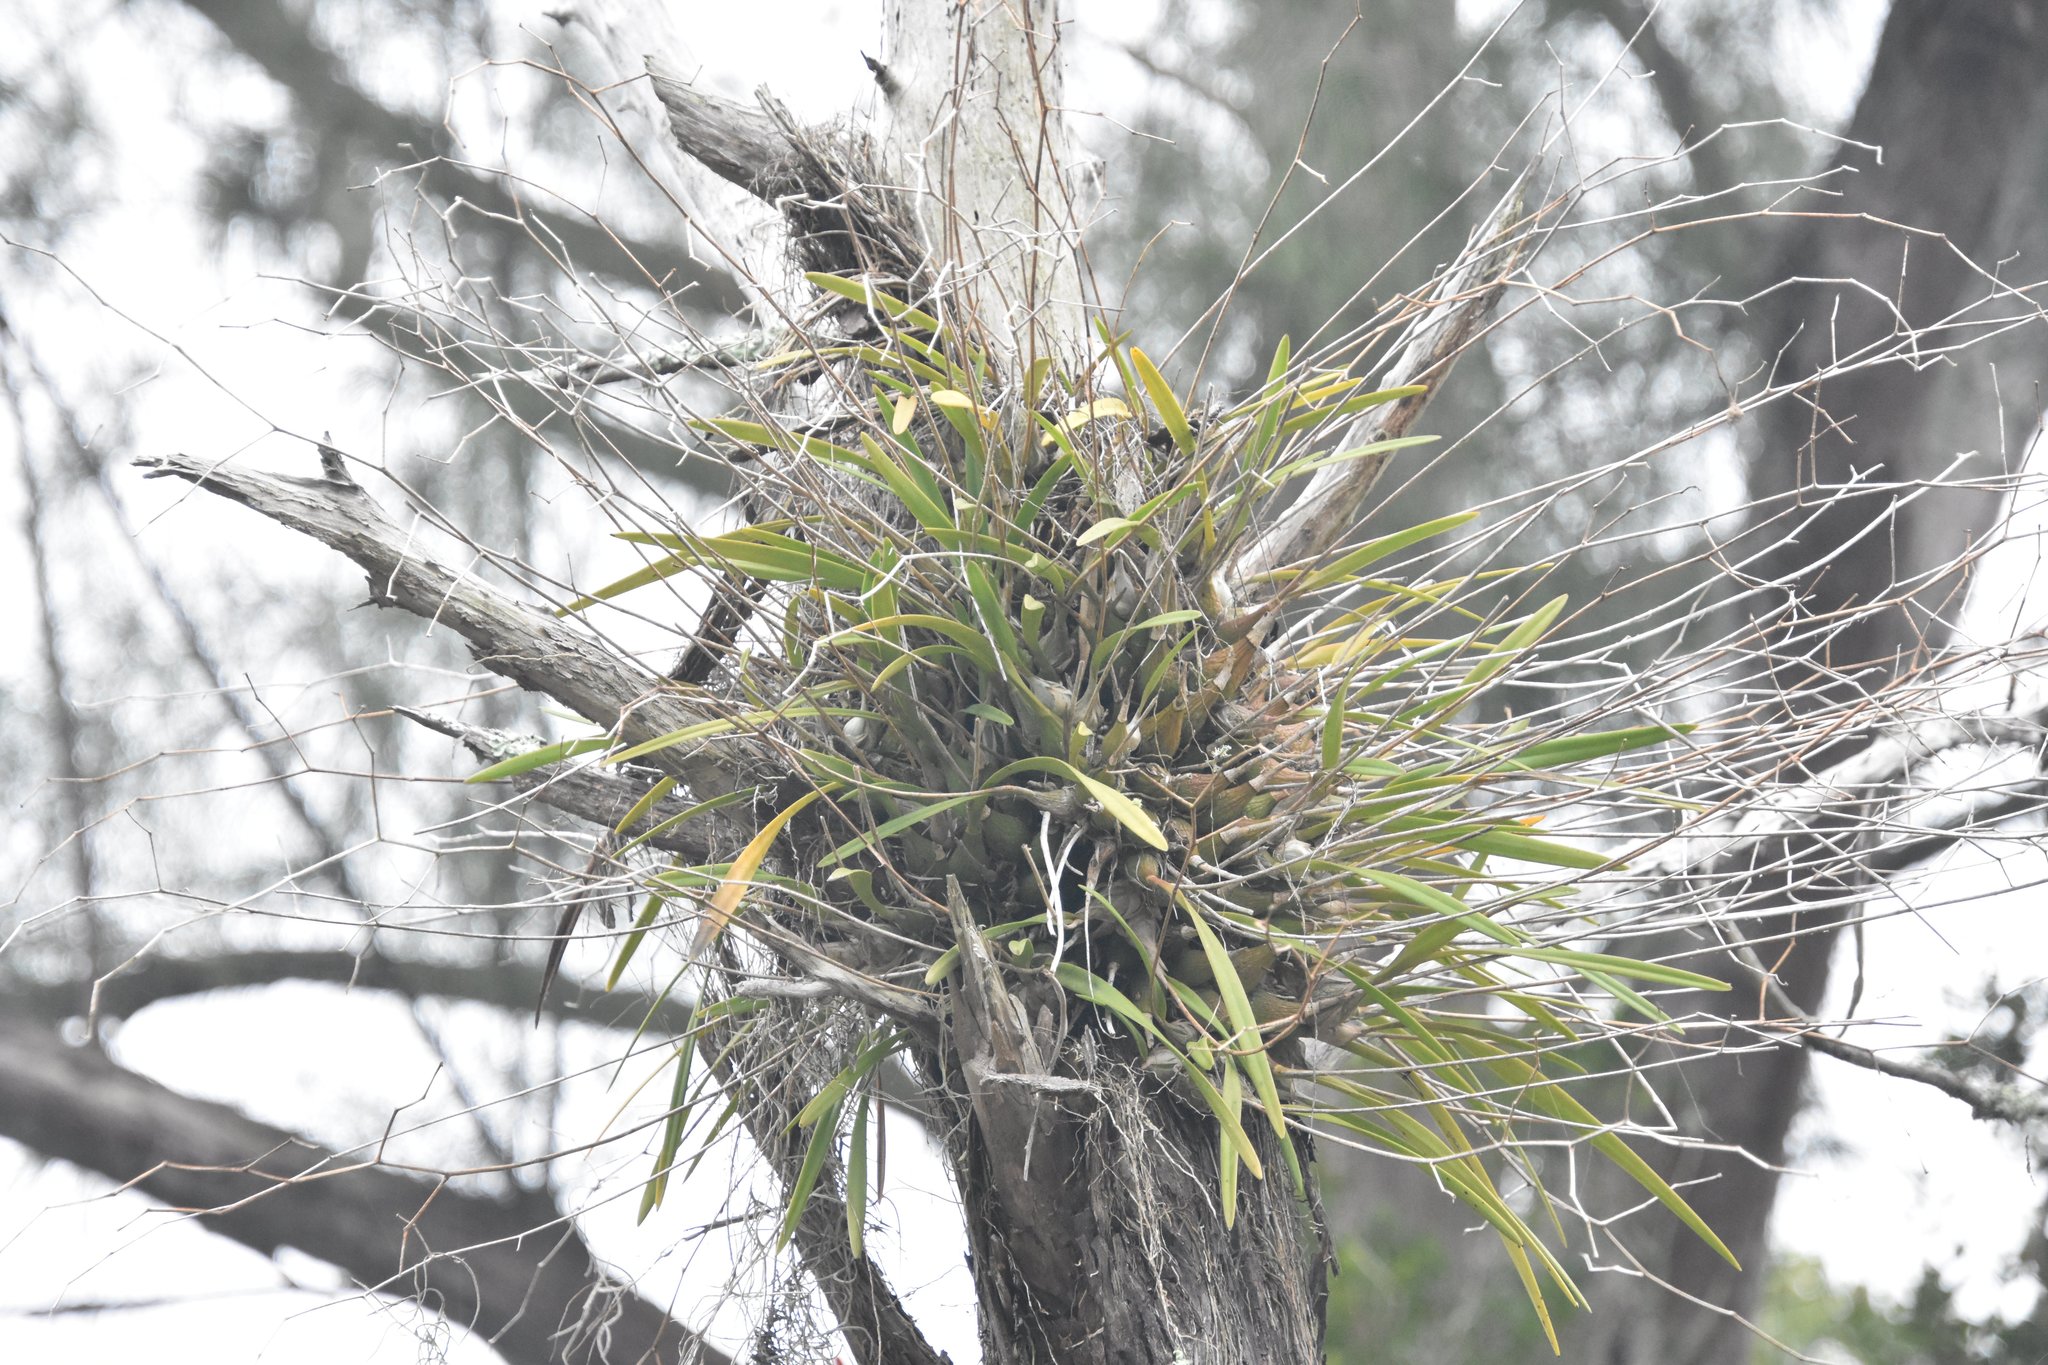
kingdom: Plantae
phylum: Tracheophyta
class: Liliopsida
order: Asparagales
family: Orchidaceae
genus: Encyclia
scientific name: Encyclia tampensis
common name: Florida butterfly orchid
